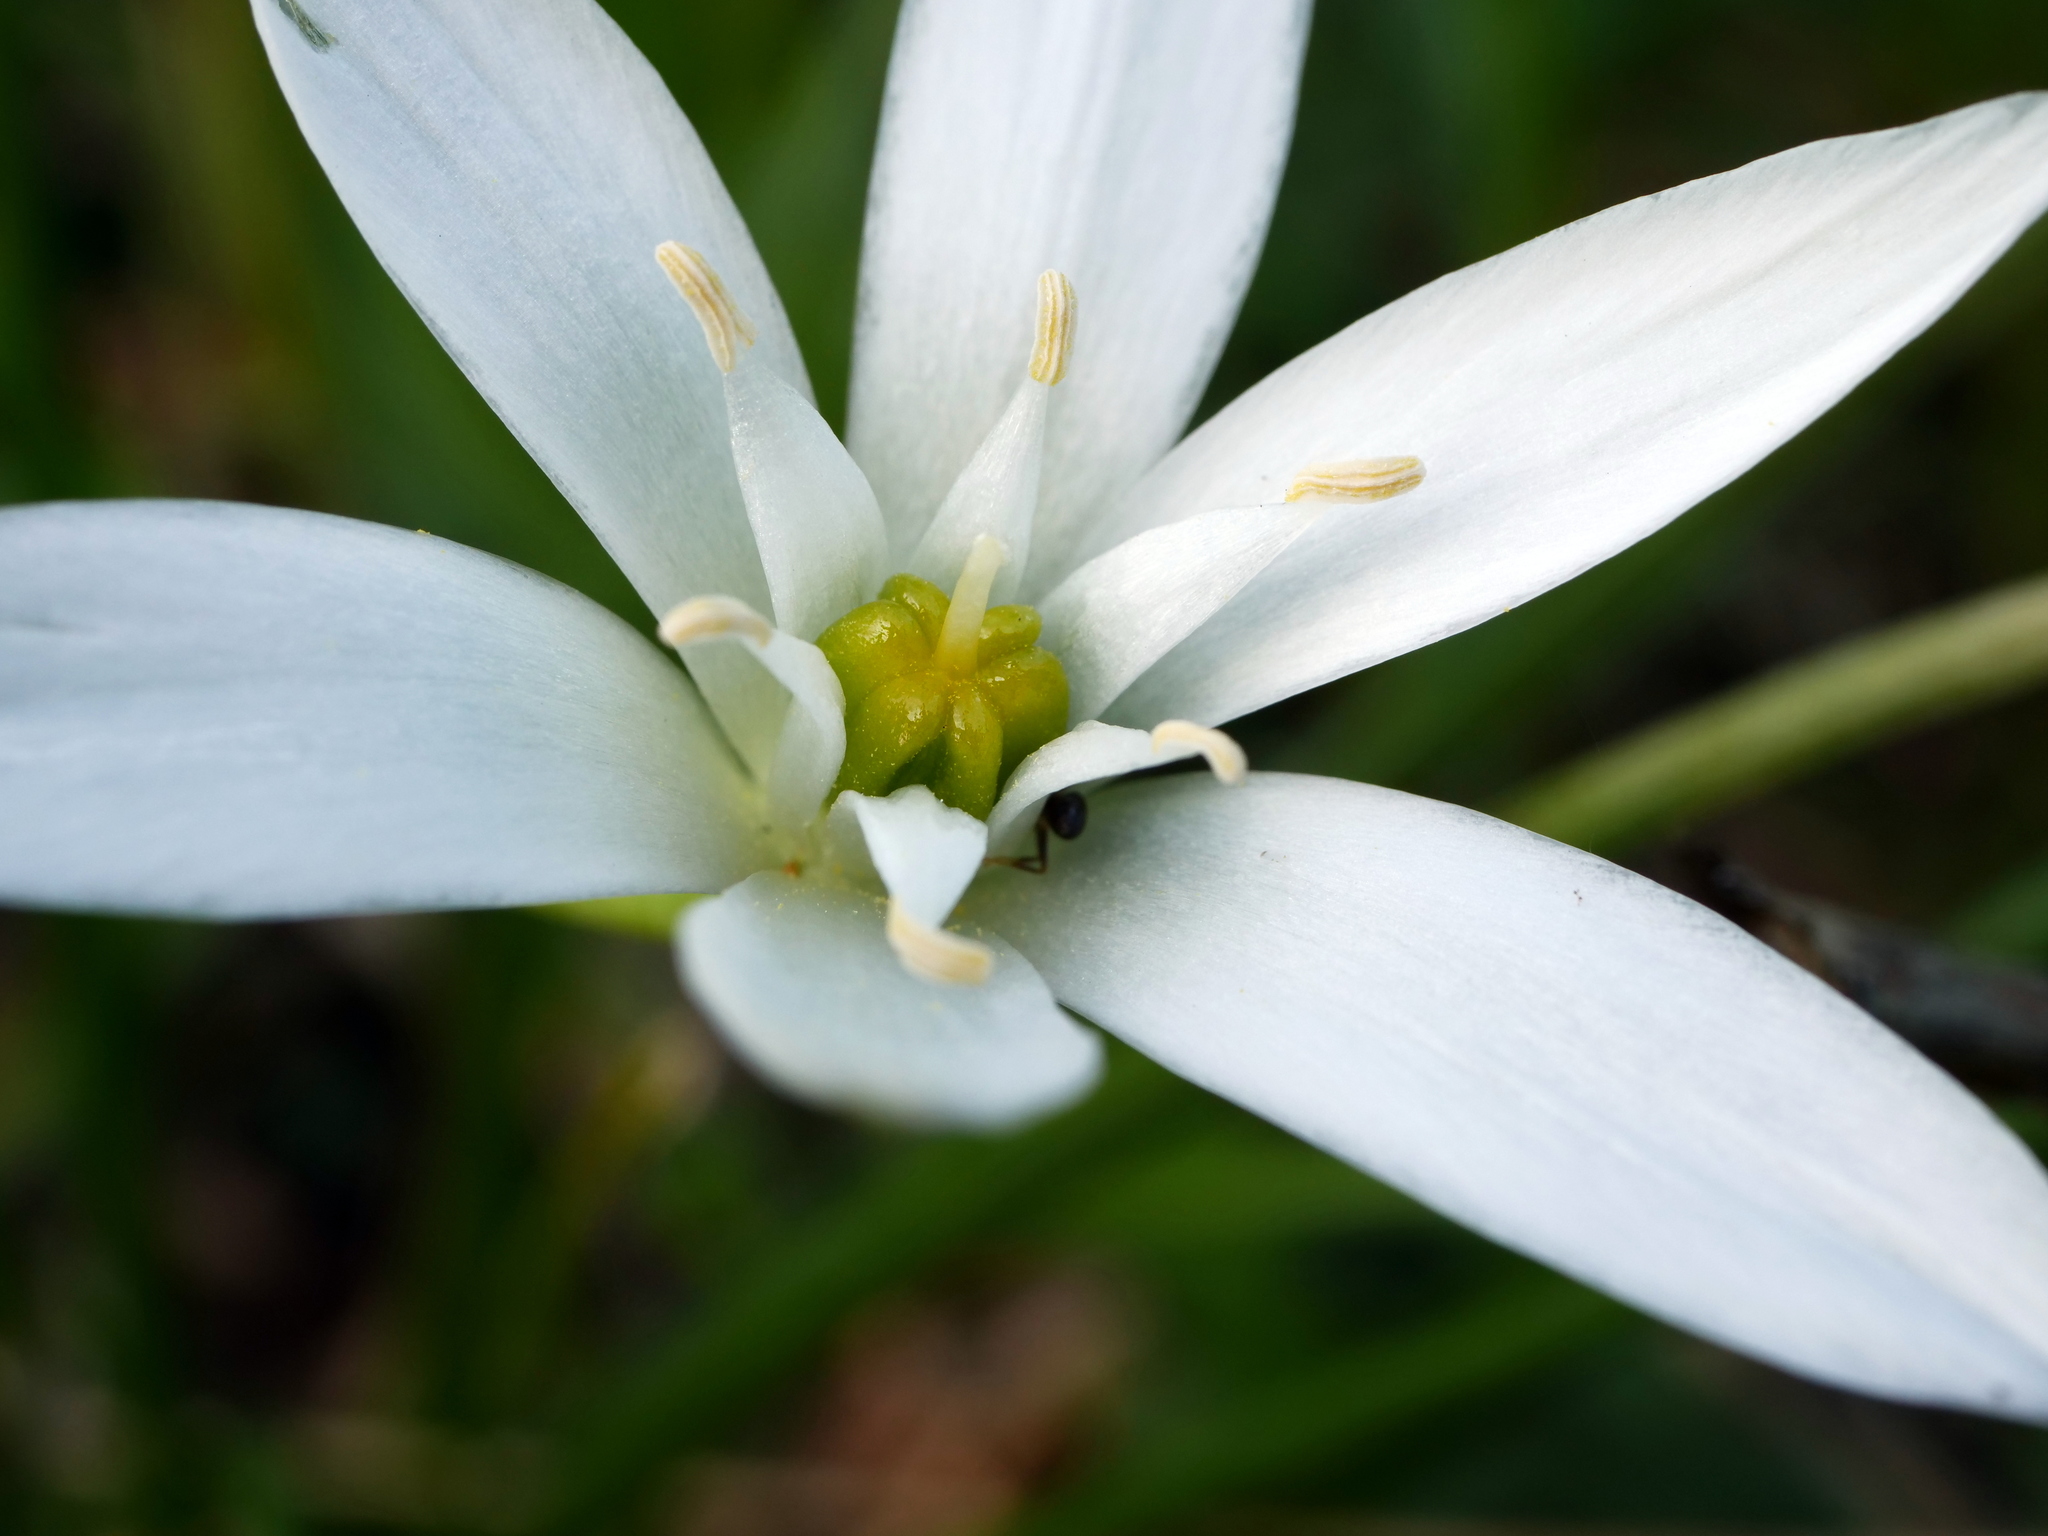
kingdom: Plantae
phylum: Tracheophyta
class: Liliopsida
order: Asparagales
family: Asparagaceae
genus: Ornithogalum
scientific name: Ornithogalum
